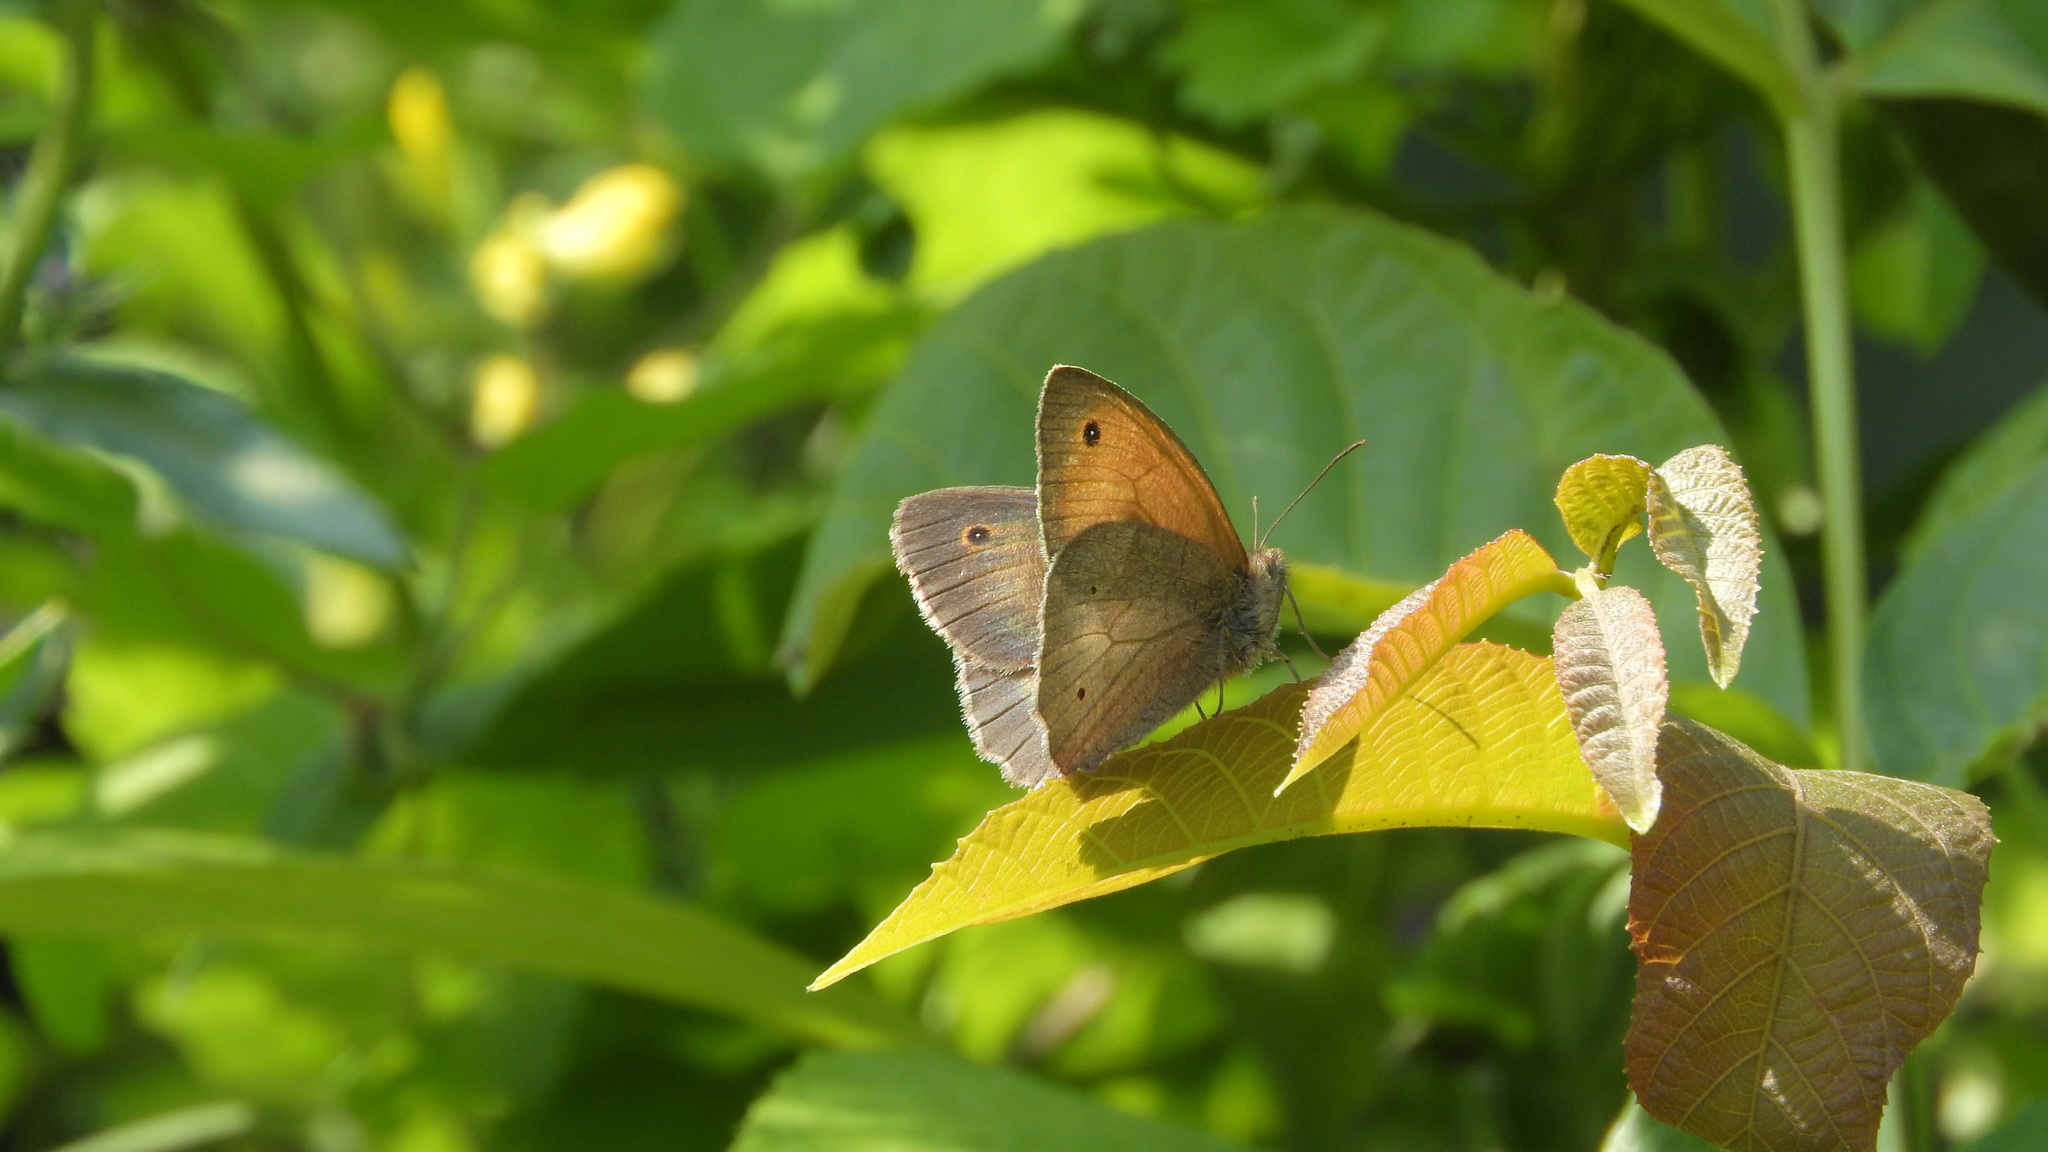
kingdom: Animalia
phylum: Arthropoda
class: Insecta
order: Lepidoptera
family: Nymphalidae
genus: Maniola
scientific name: Maniola jurtina
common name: Meadow brown
